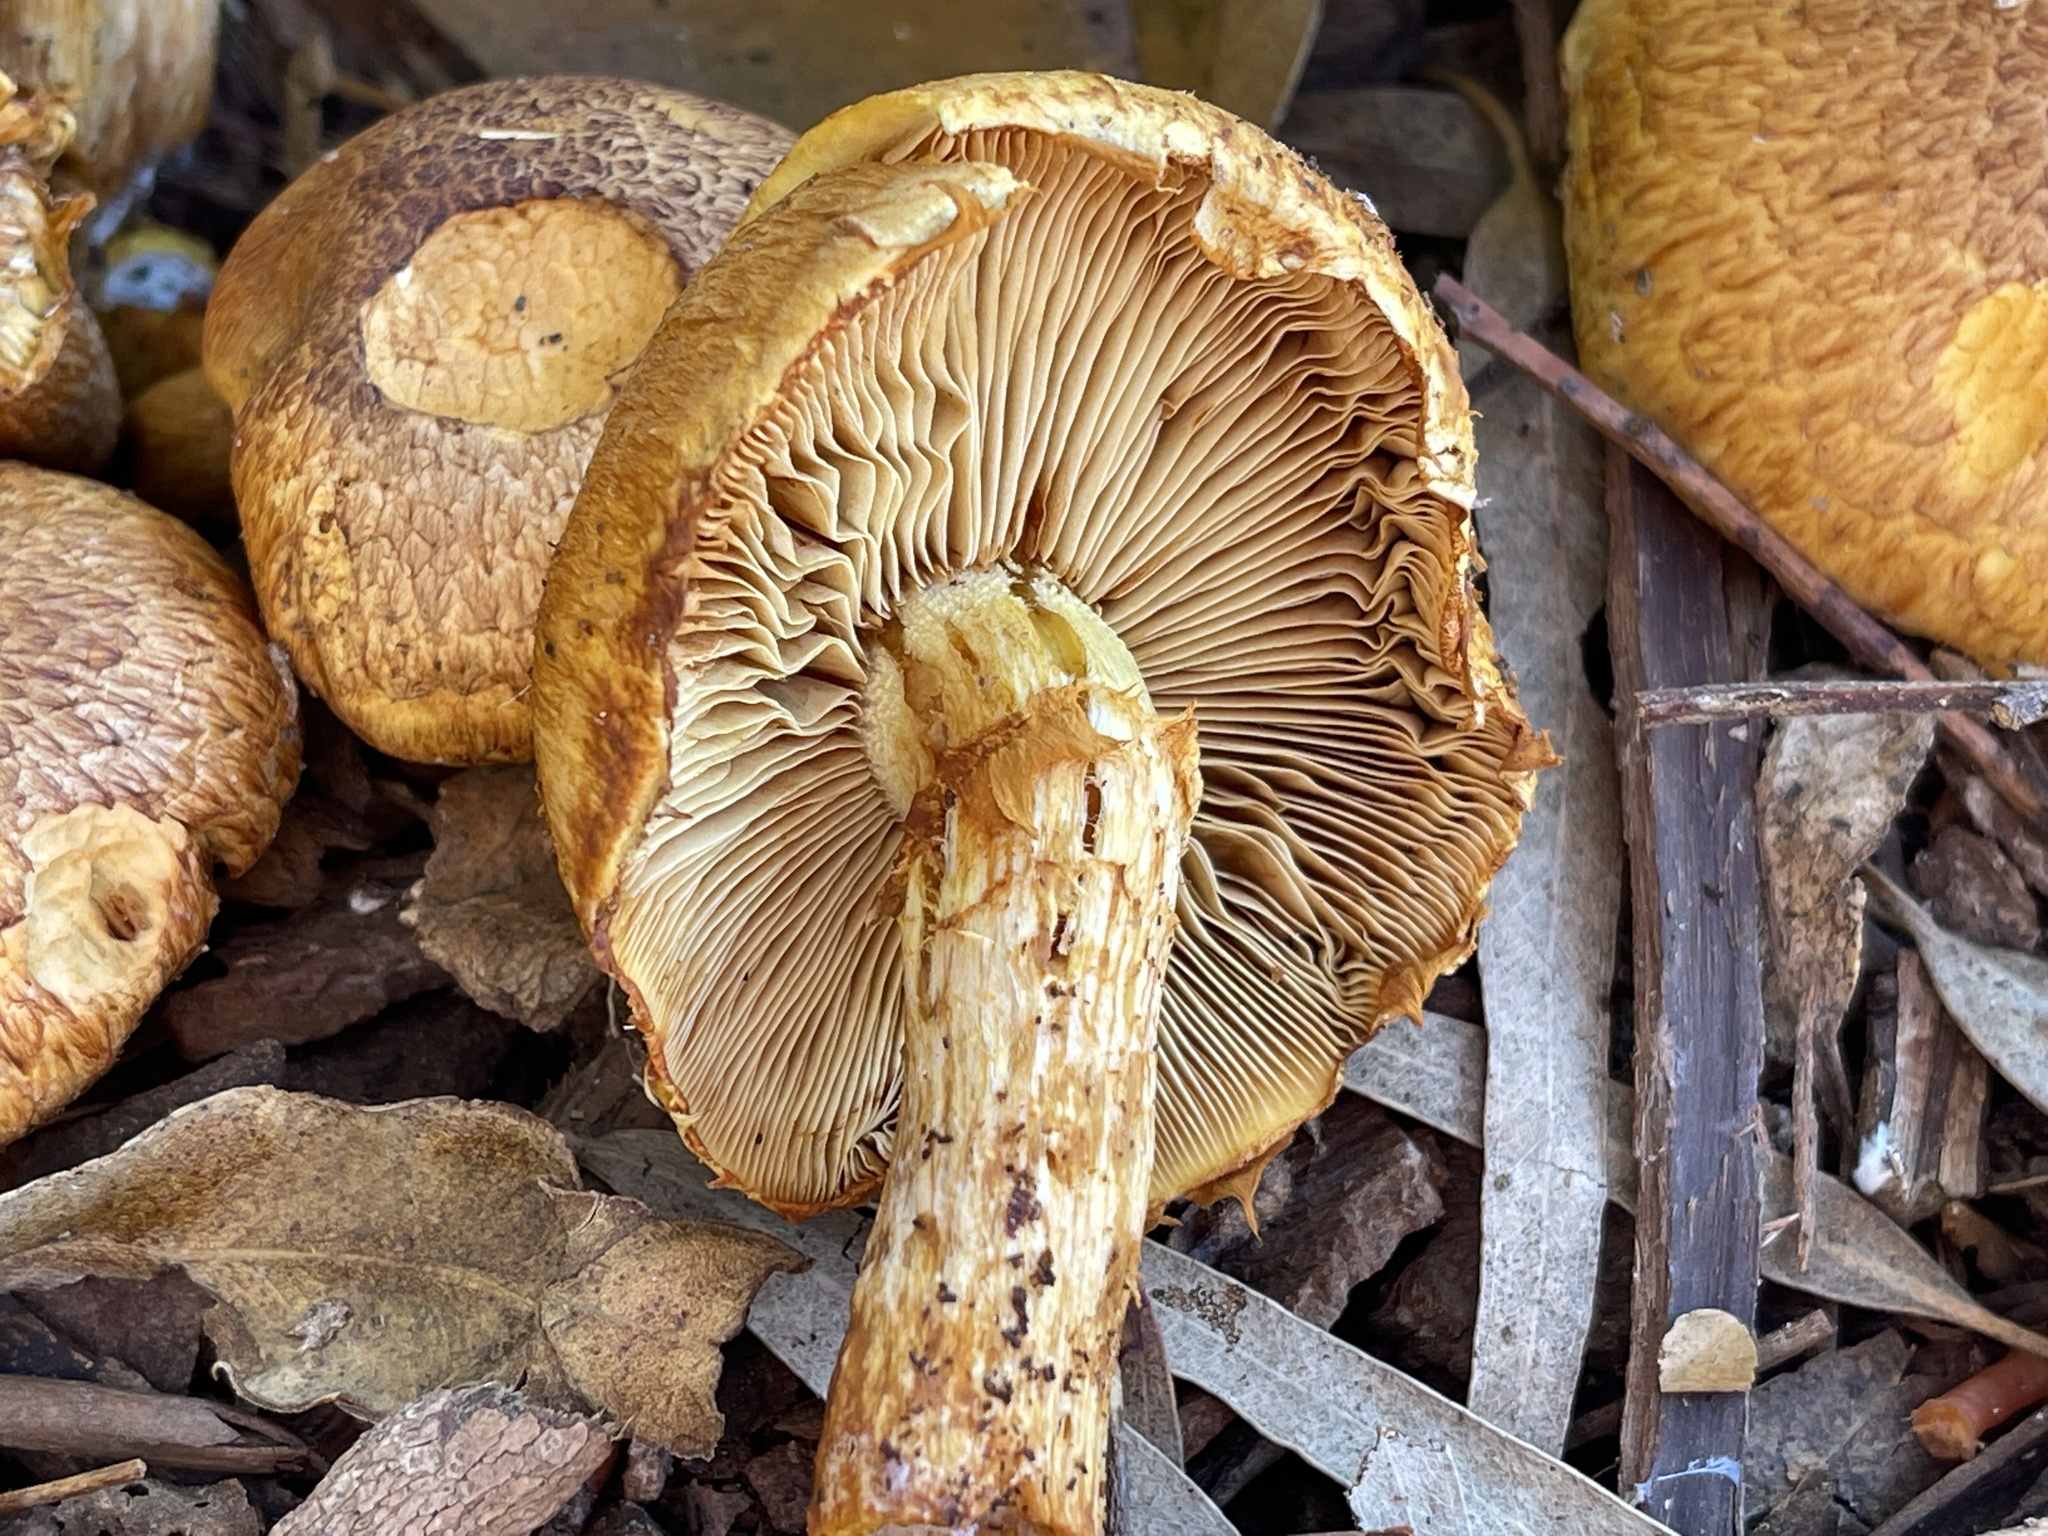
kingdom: Fungi
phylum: Basidiomycota
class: Agaricomycetes
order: Agaricales
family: Hymenogastraceae
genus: Gymnopilus
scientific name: Gymnopilus junonius
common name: Spectacular rustgill
